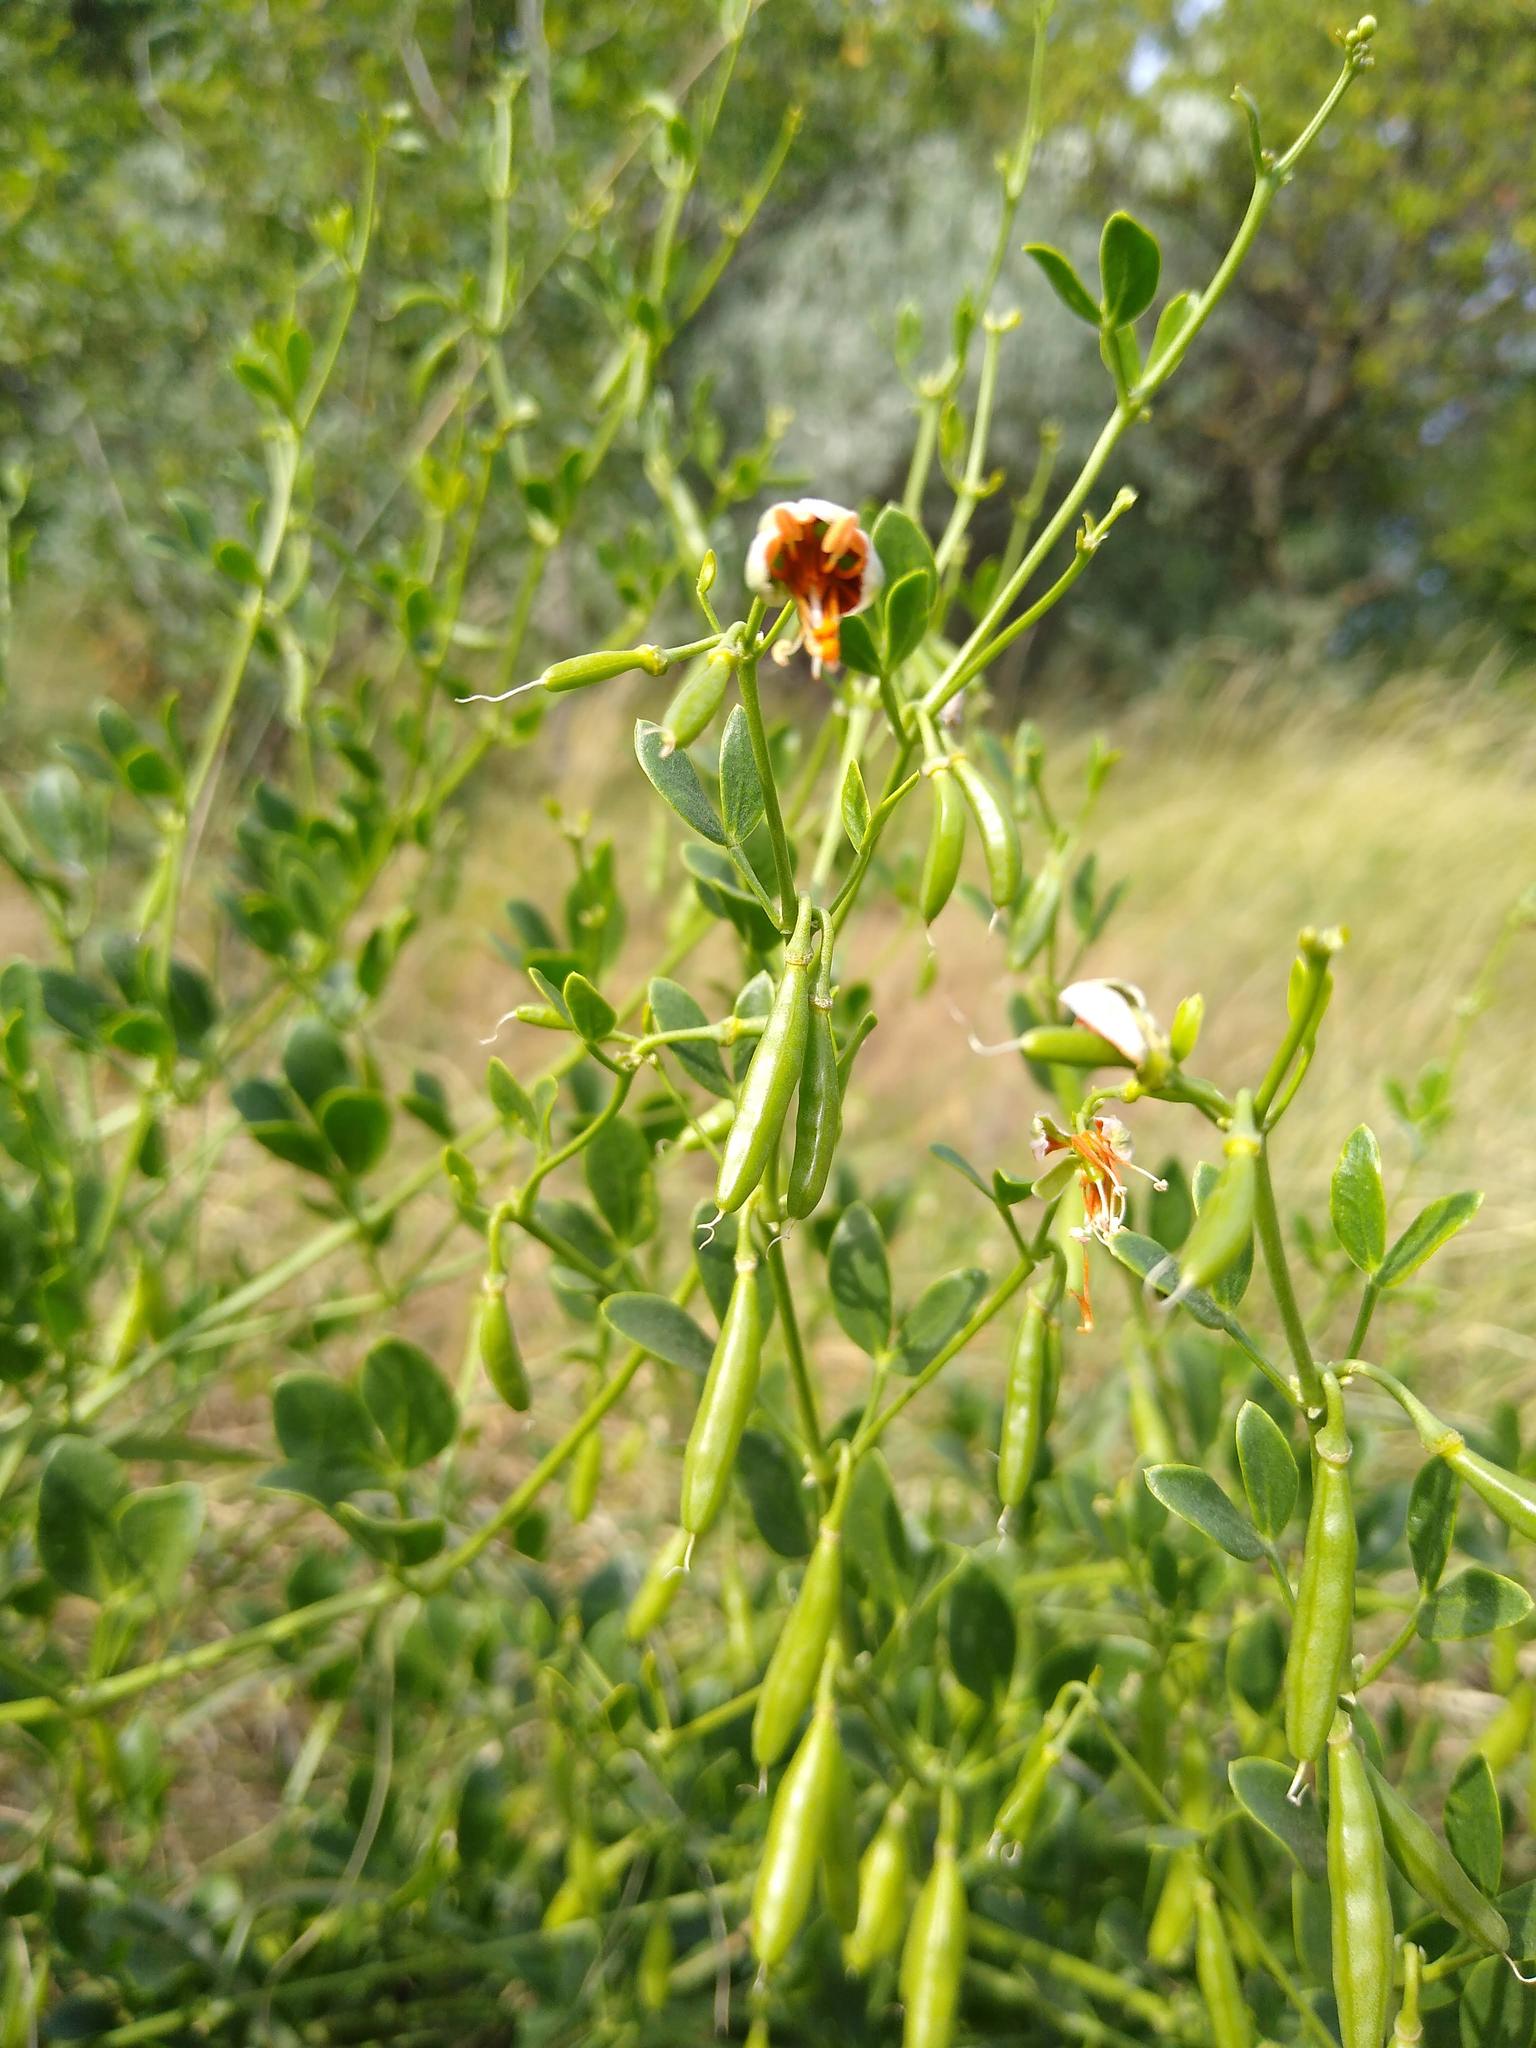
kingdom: Plantae
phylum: Tracheophyta
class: Magnoliopsida
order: Zygophyllales
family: Zygophyllaceae
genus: Zygophyllum
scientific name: Zygophyllum fabago
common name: Syrian beancaper
